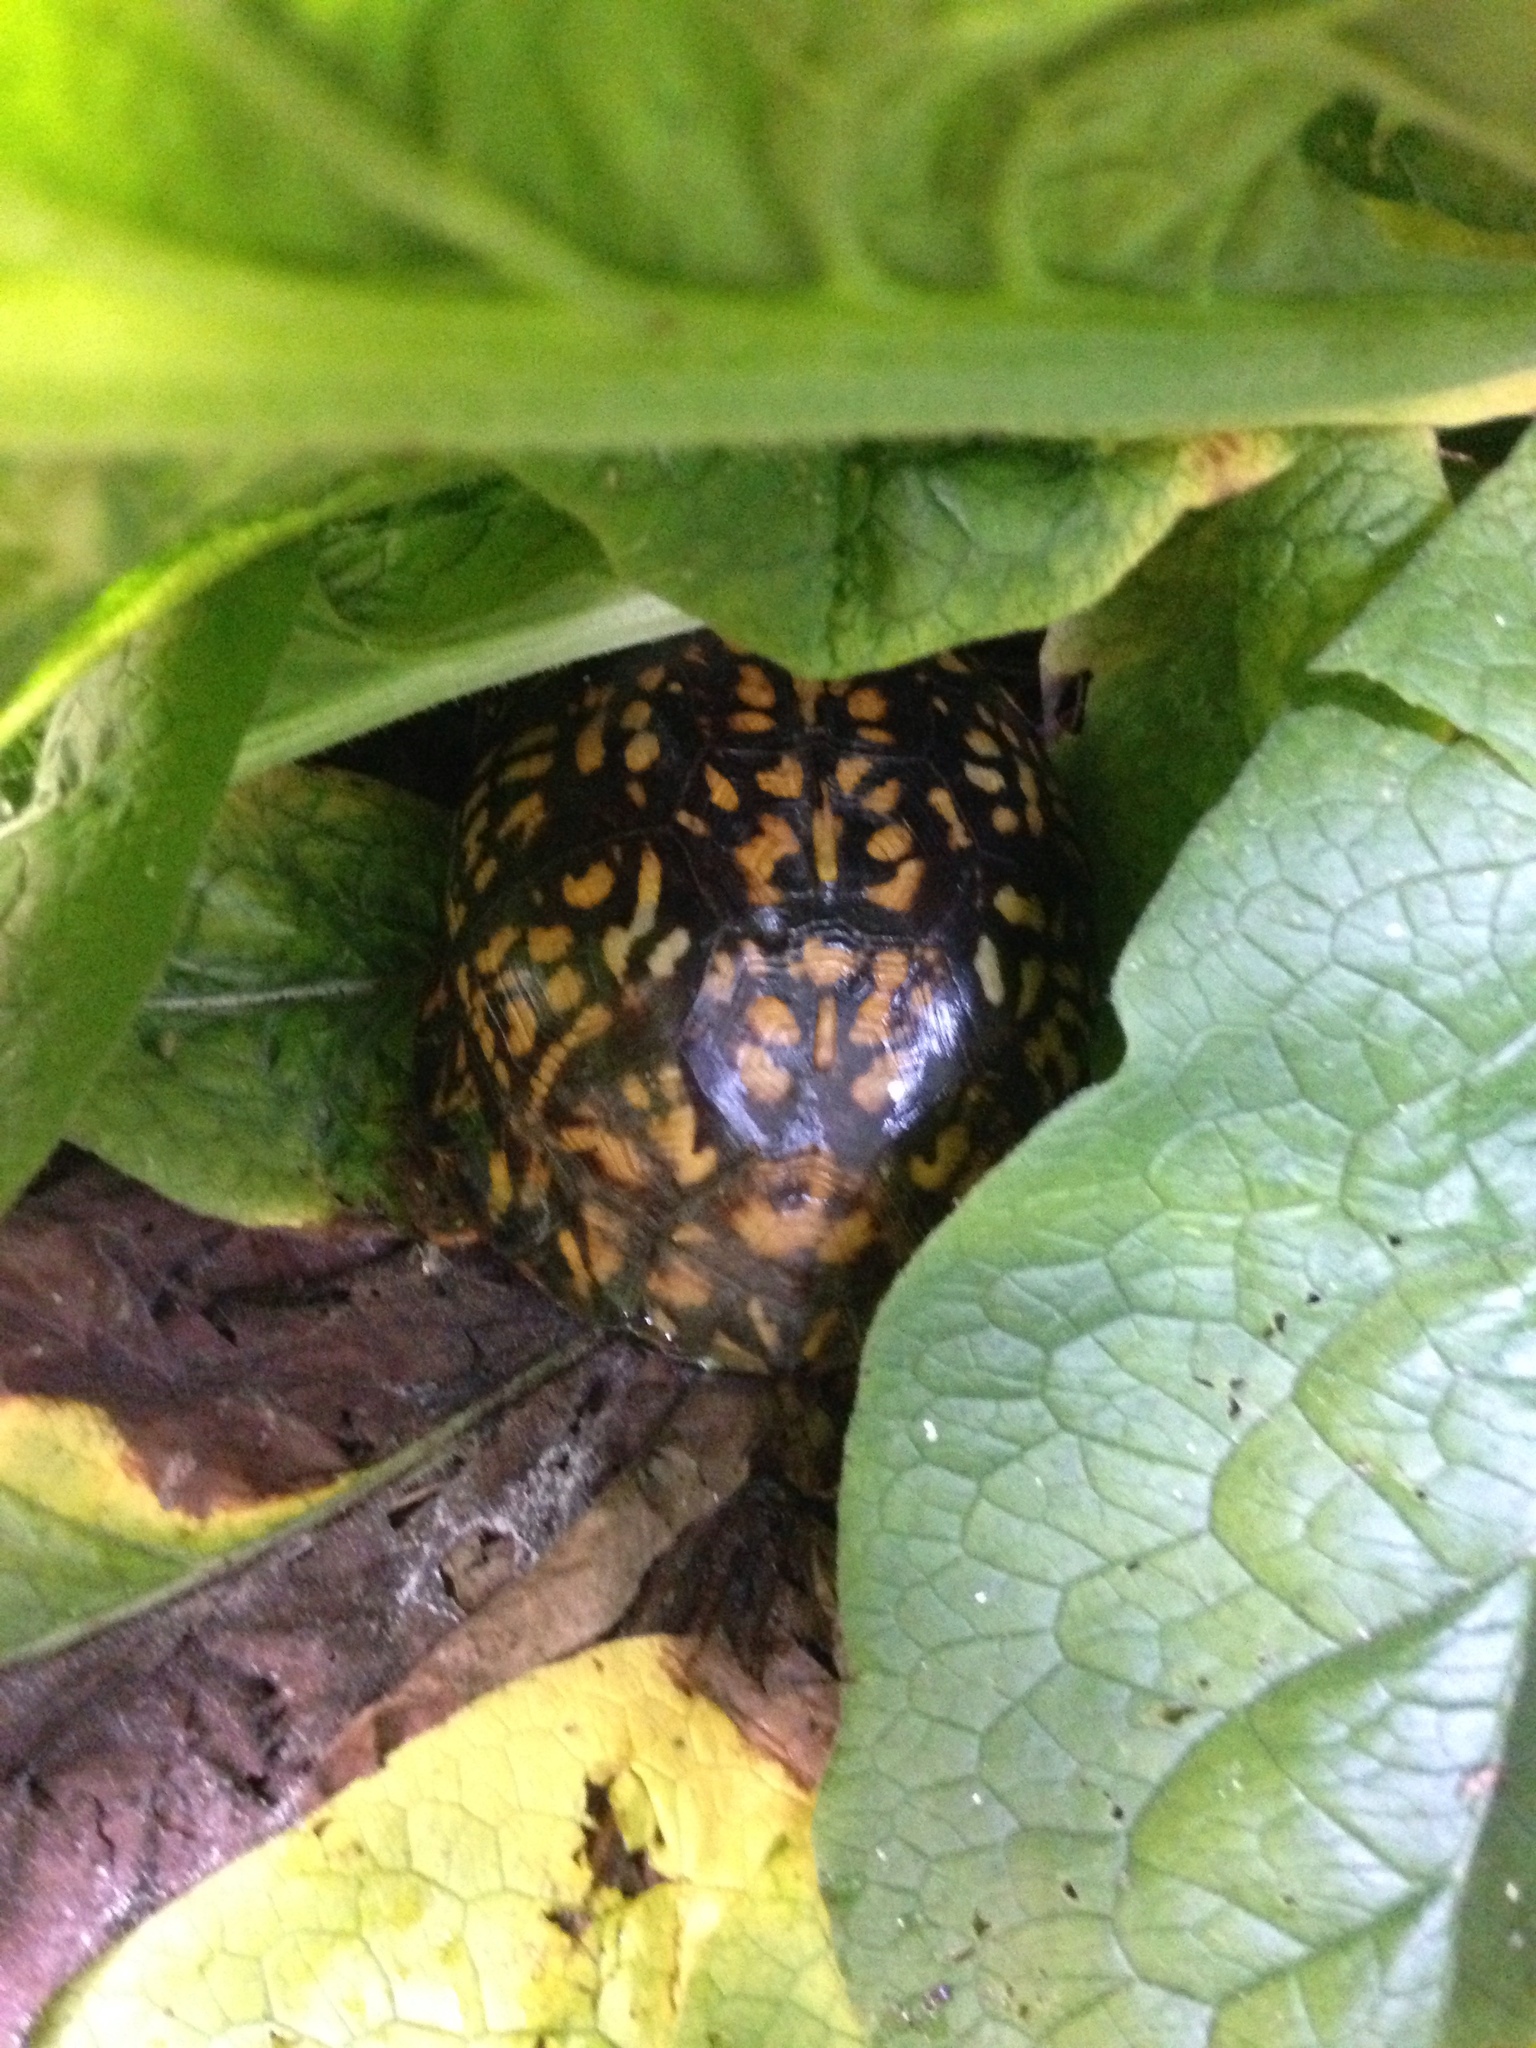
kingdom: Animalia
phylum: Chordata
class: Testudines
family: Emydidae
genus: Terrapene
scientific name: Terrapene carolina
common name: Common box turtle
